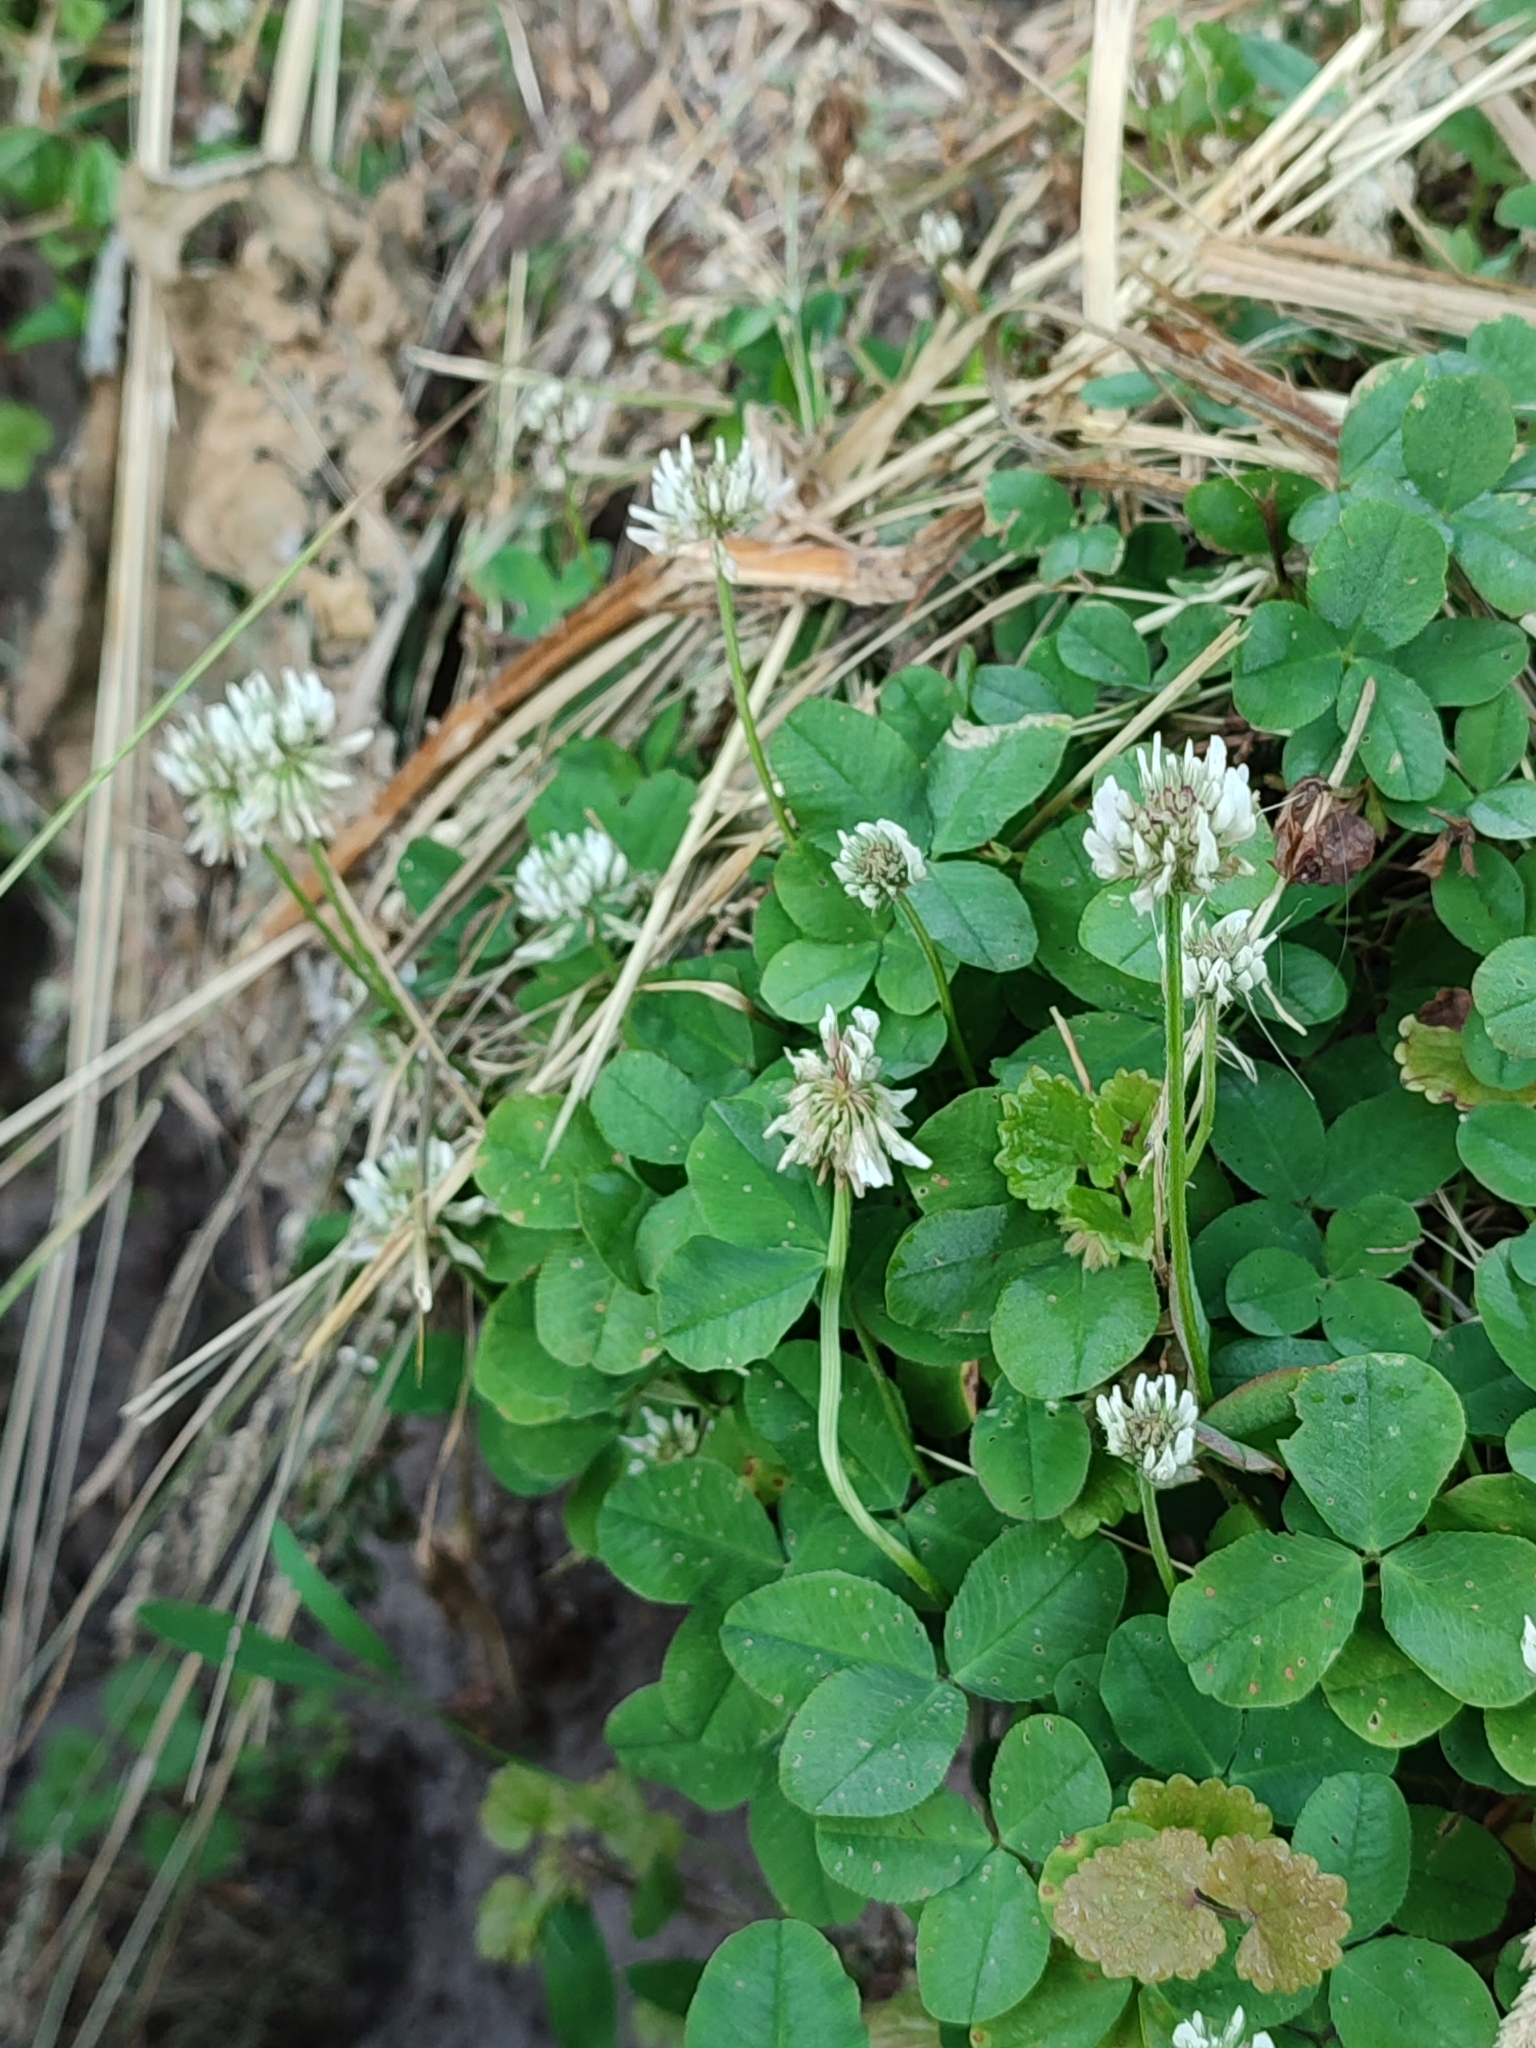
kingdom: Plantae
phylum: Tracheophyta
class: Magnoliopsida
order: Fabales
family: Fabaceae
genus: Trifolium
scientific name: Trifolium repens
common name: White clover
